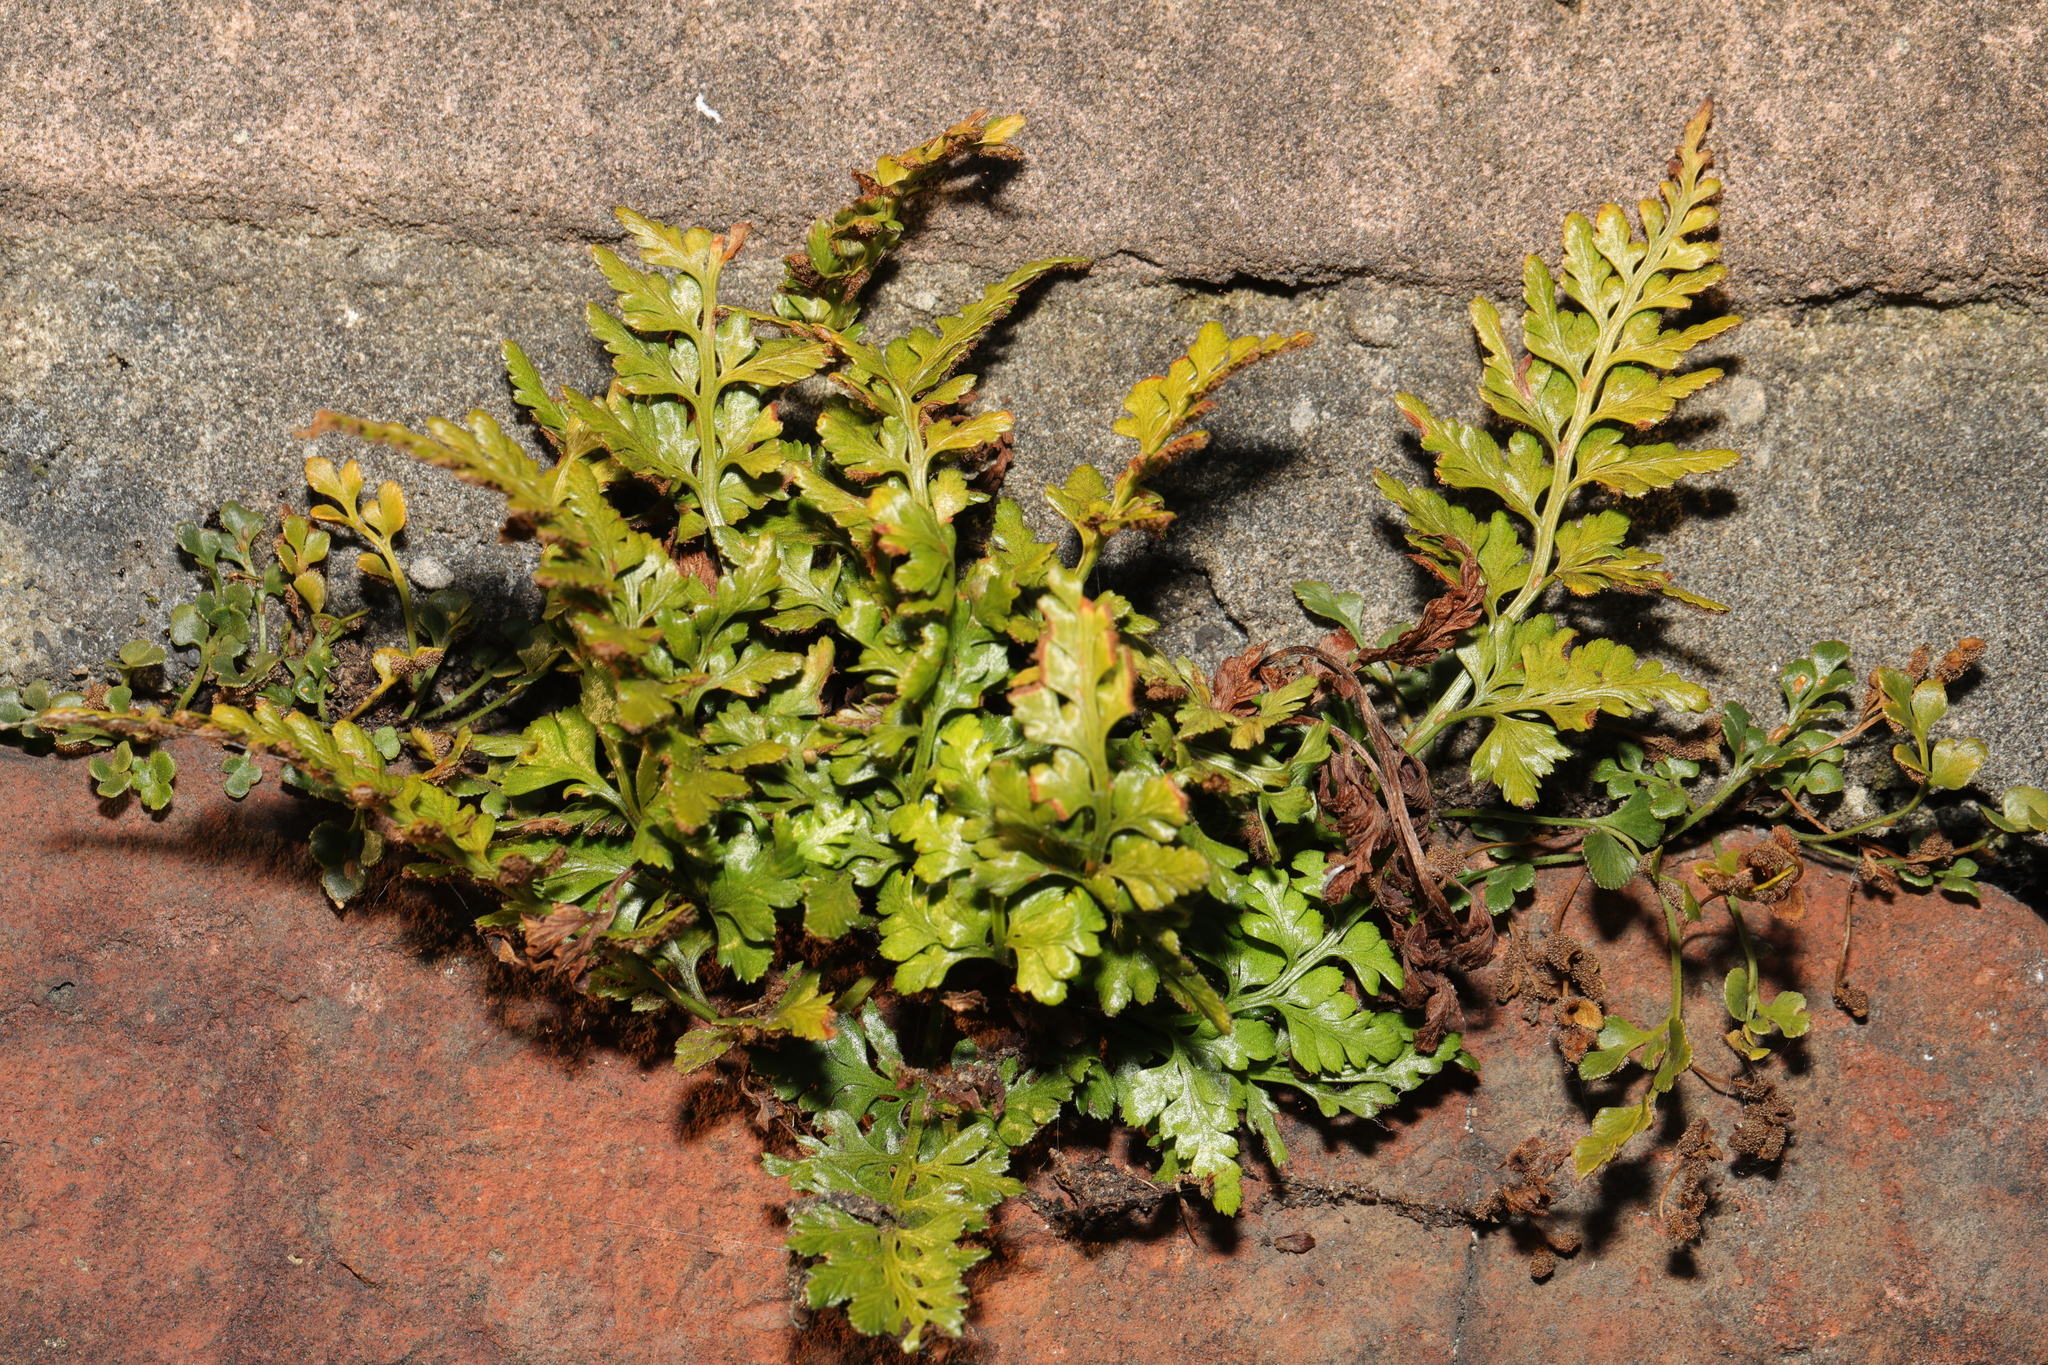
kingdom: Plantae
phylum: Tracheophyta
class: Polypodiopsida
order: Polypodiales
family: Aspleniaceae
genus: Asplenium
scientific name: Asplenium adiantum-nigrum
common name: Black spleenwort
